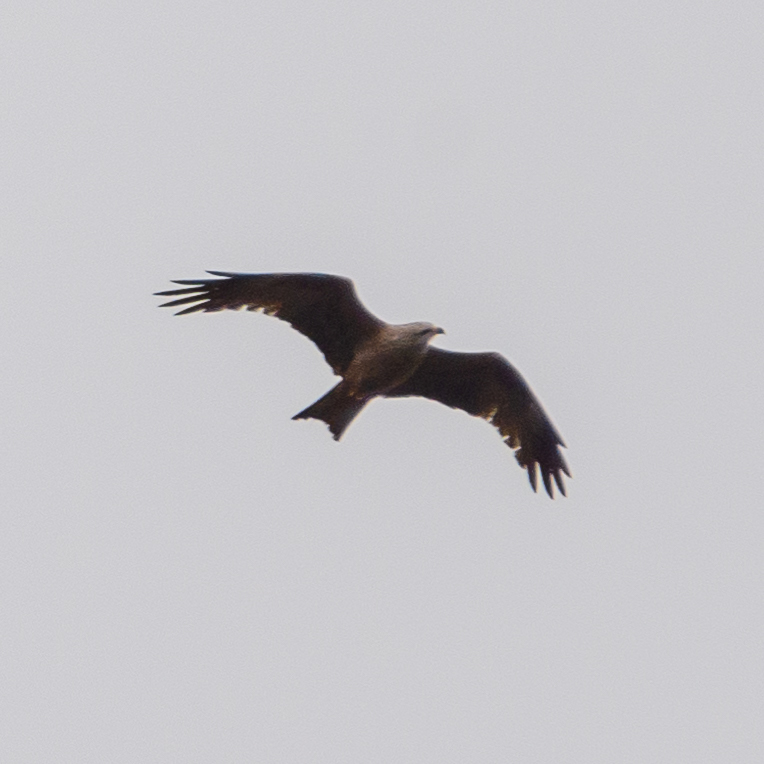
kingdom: Animalia
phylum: Chordata
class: Aves
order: Accipitriformes
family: Accipitridae
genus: Milvus
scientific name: Milvus migrans
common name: Black kite
